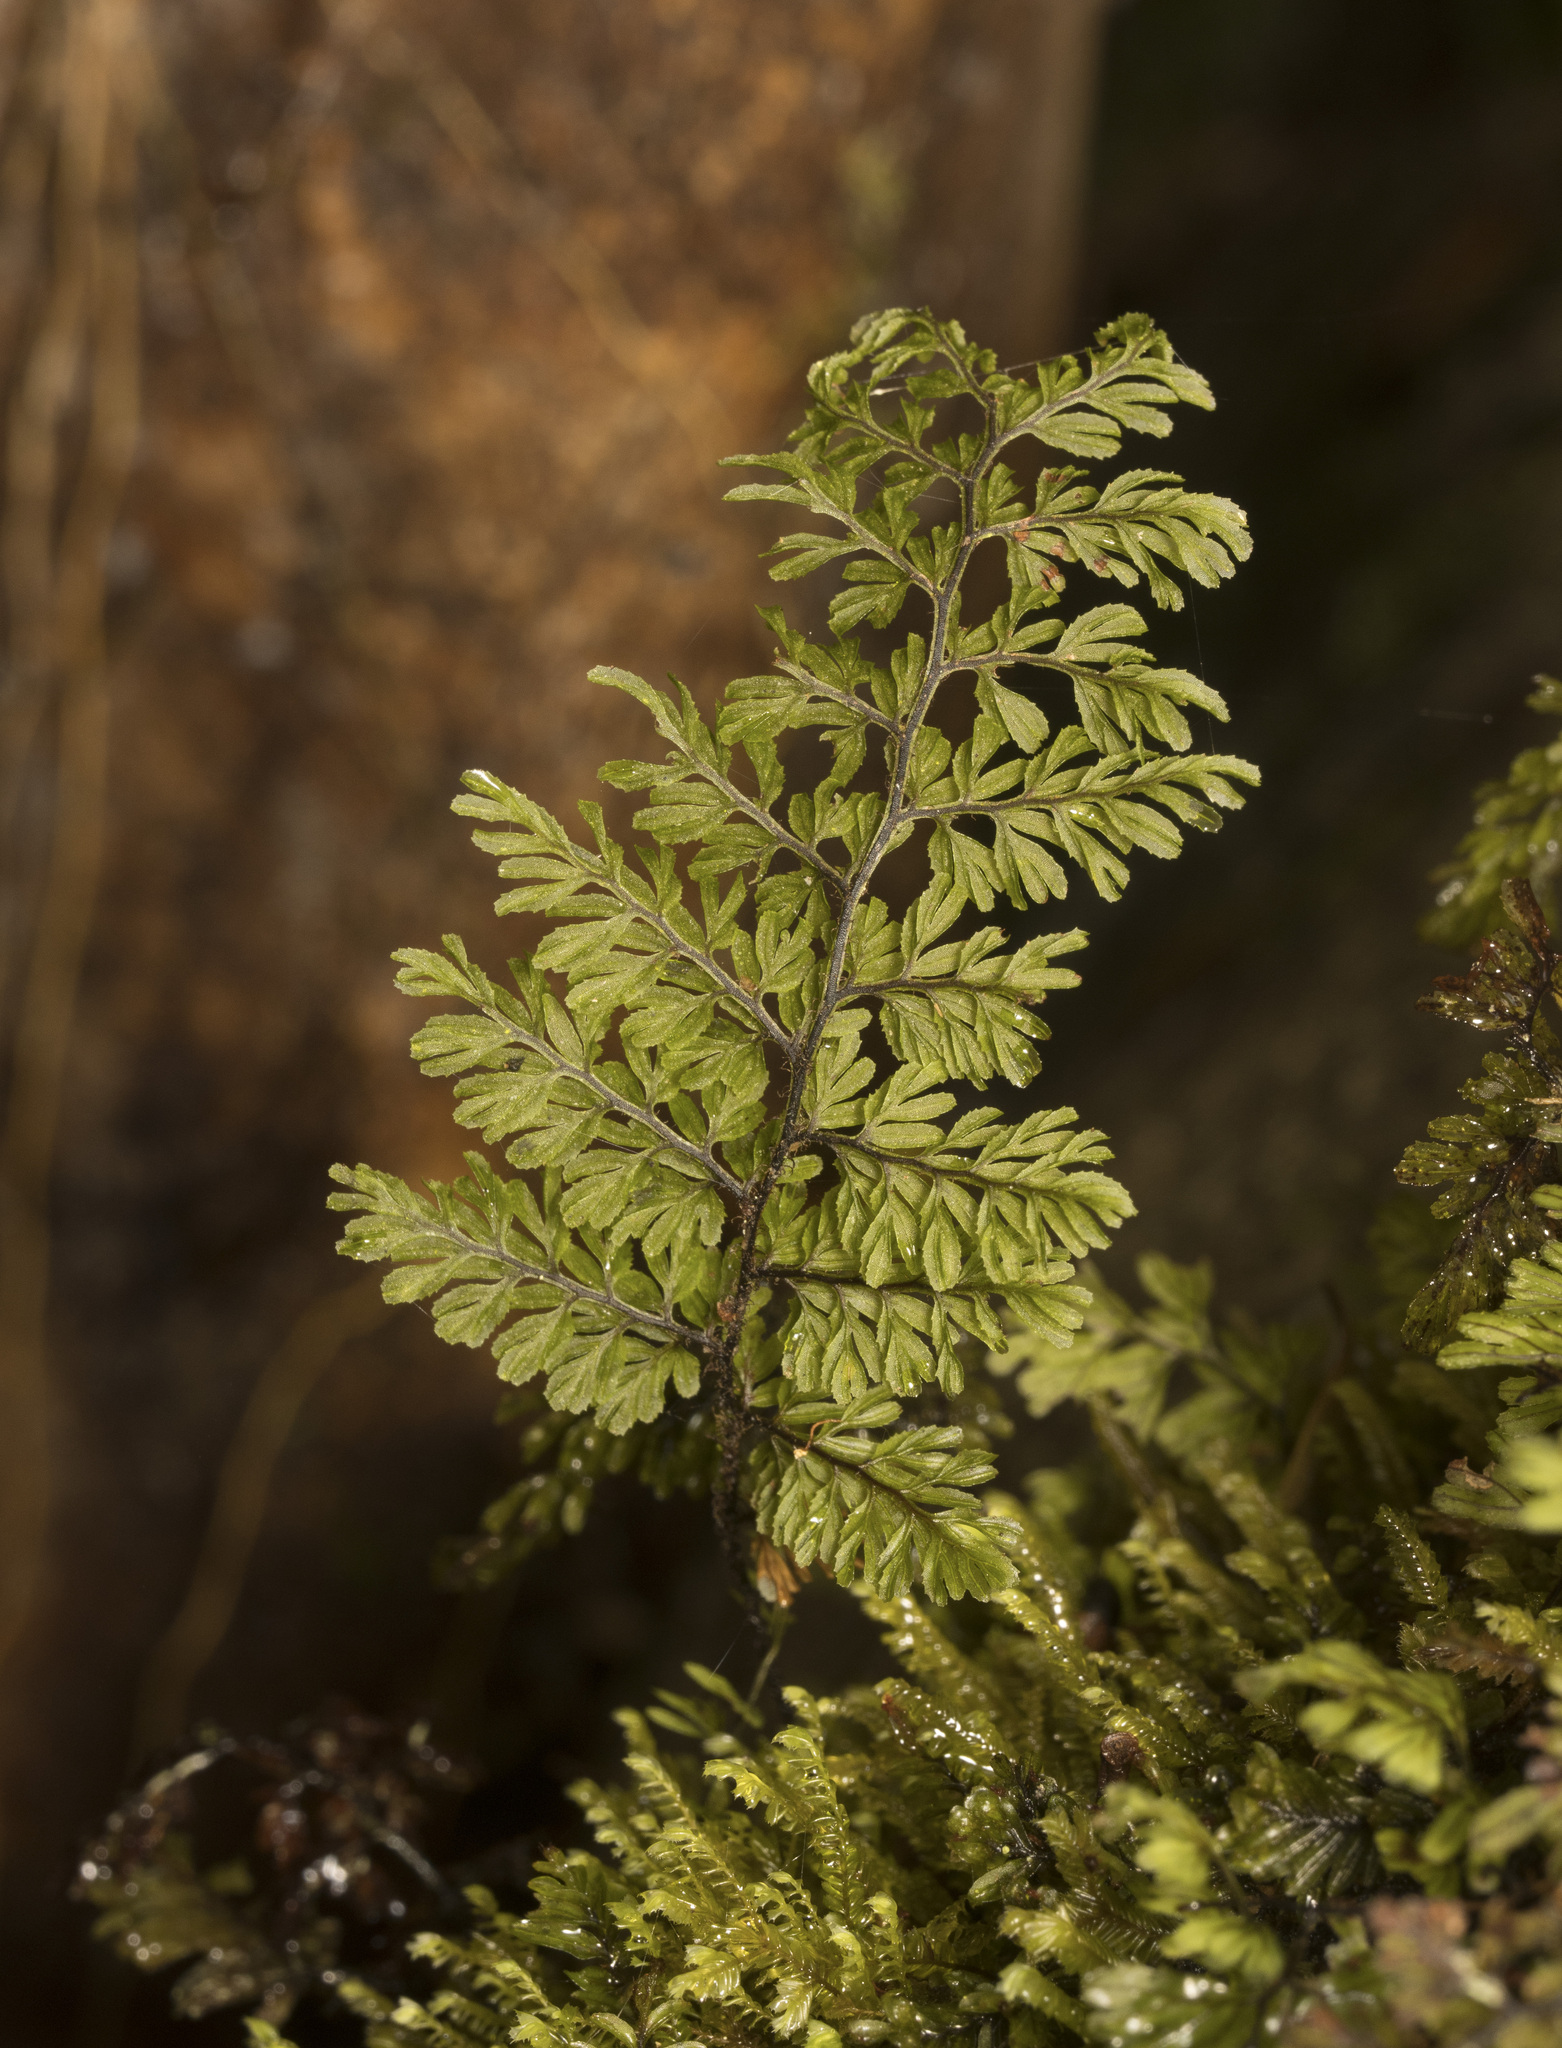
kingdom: Plantae
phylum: Tracheophyta
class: Polypodiopsida
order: Hymenophyllales
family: Hymenophyllaceae
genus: Hymenophyllum
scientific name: Hymenophyllum dentatum
